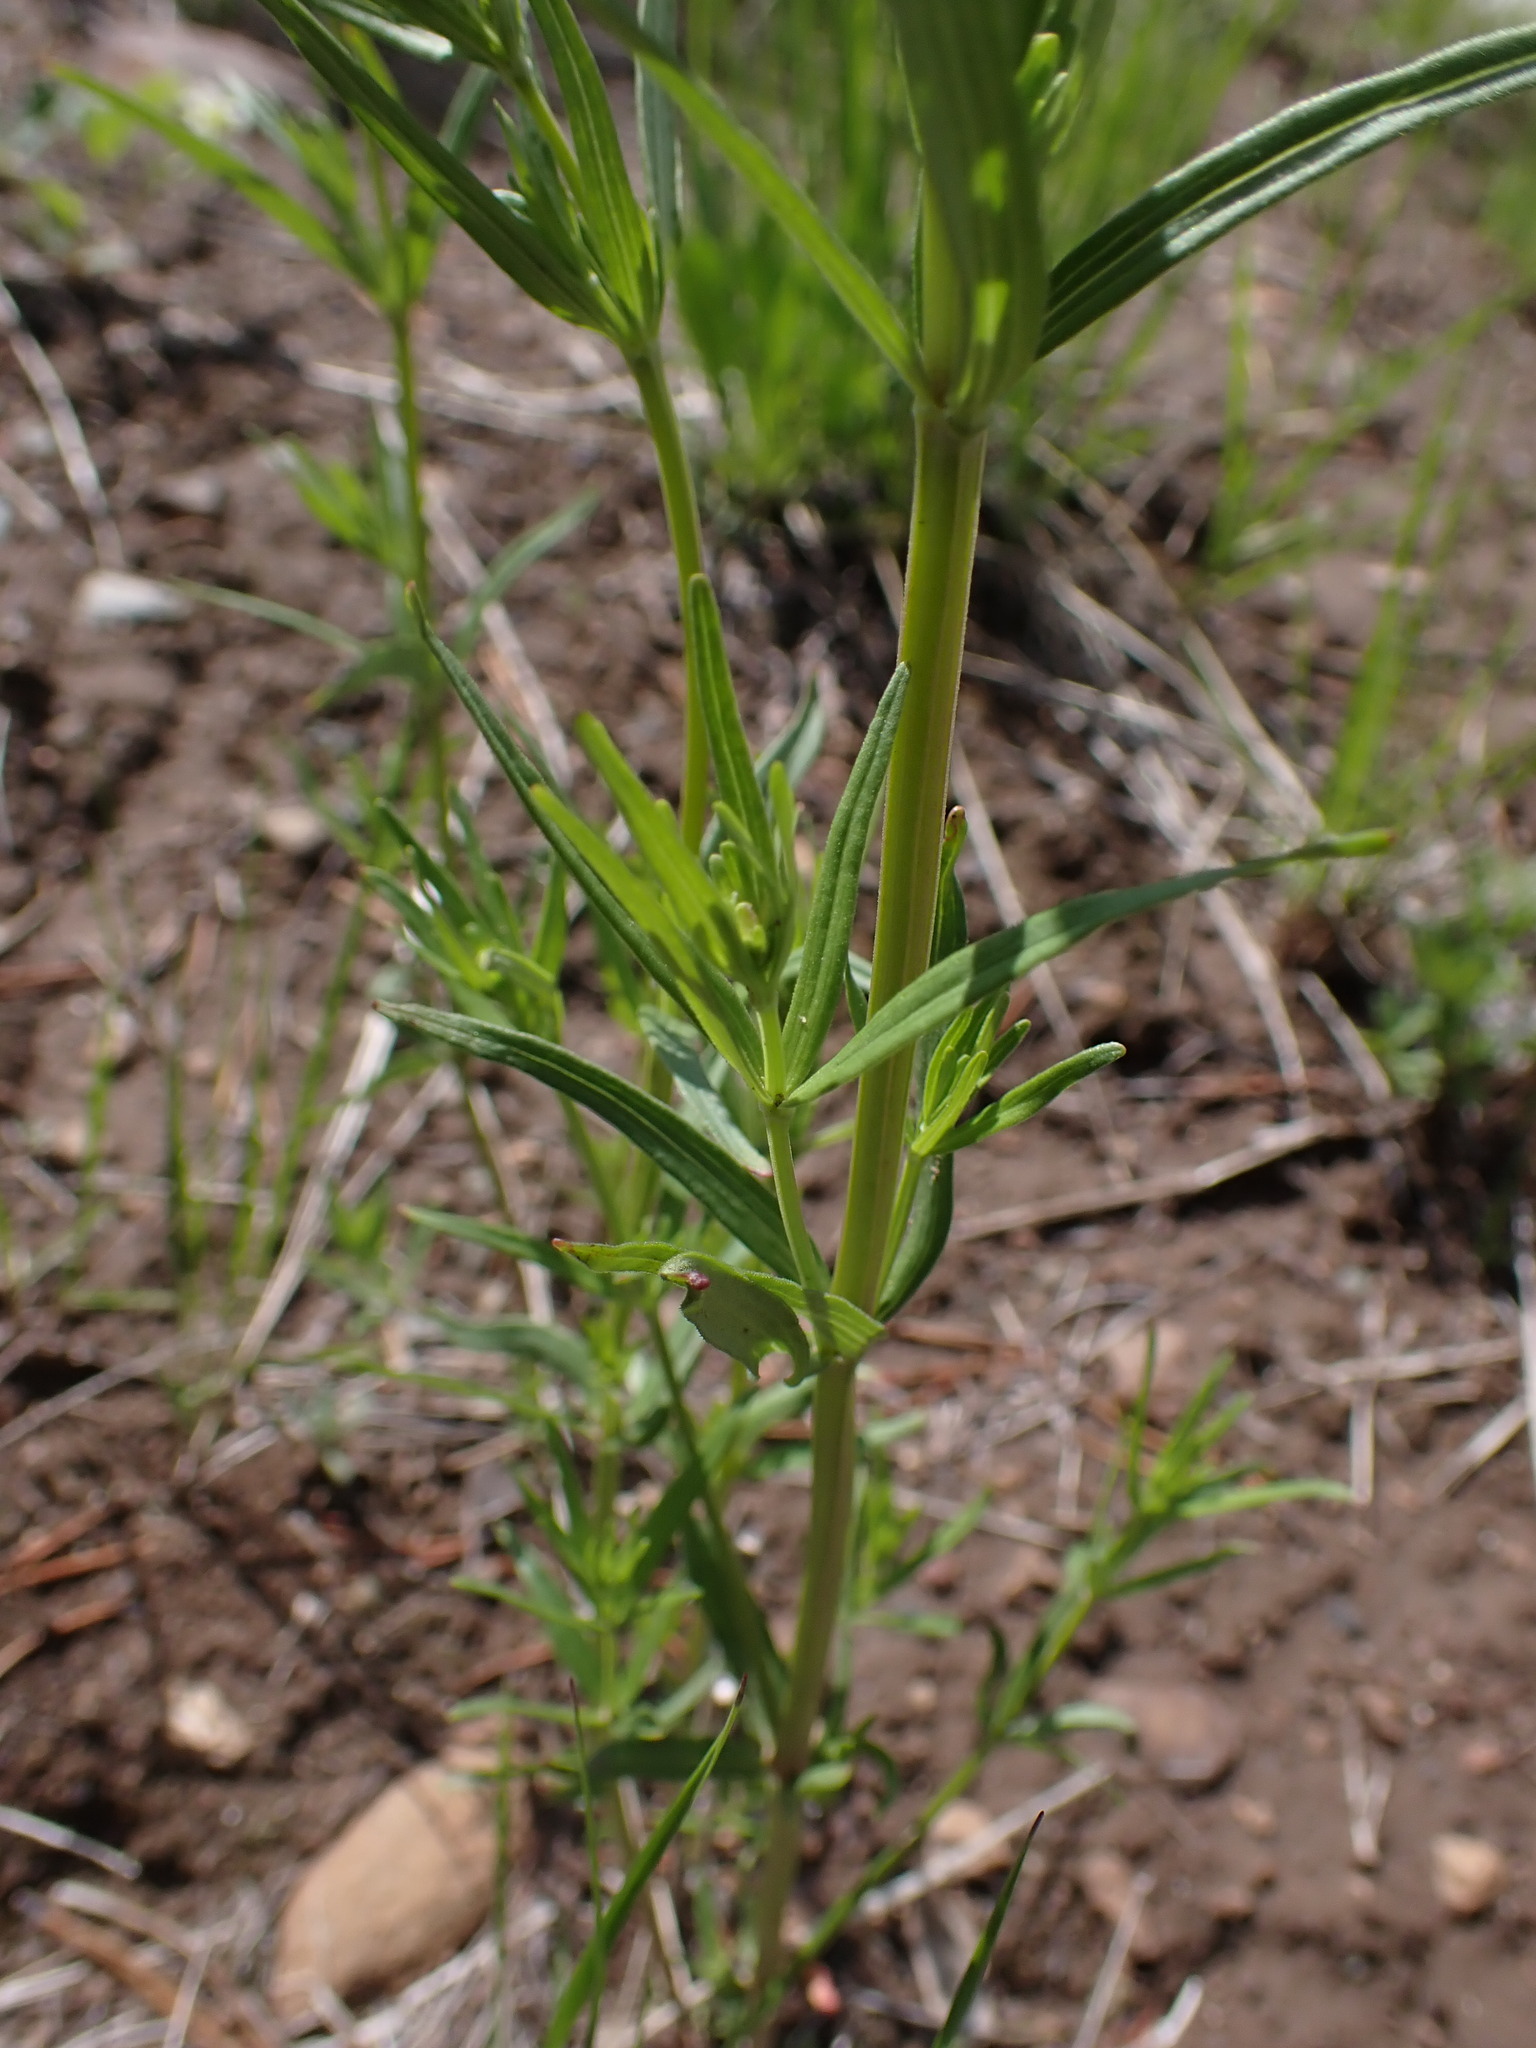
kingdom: Plantae
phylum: Tracheophyta
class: Magnoliopsida
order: Boraginales
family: Boraginaceae
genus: Lithospermum
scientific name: Lithospermum ruderale
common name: Western gromwell
